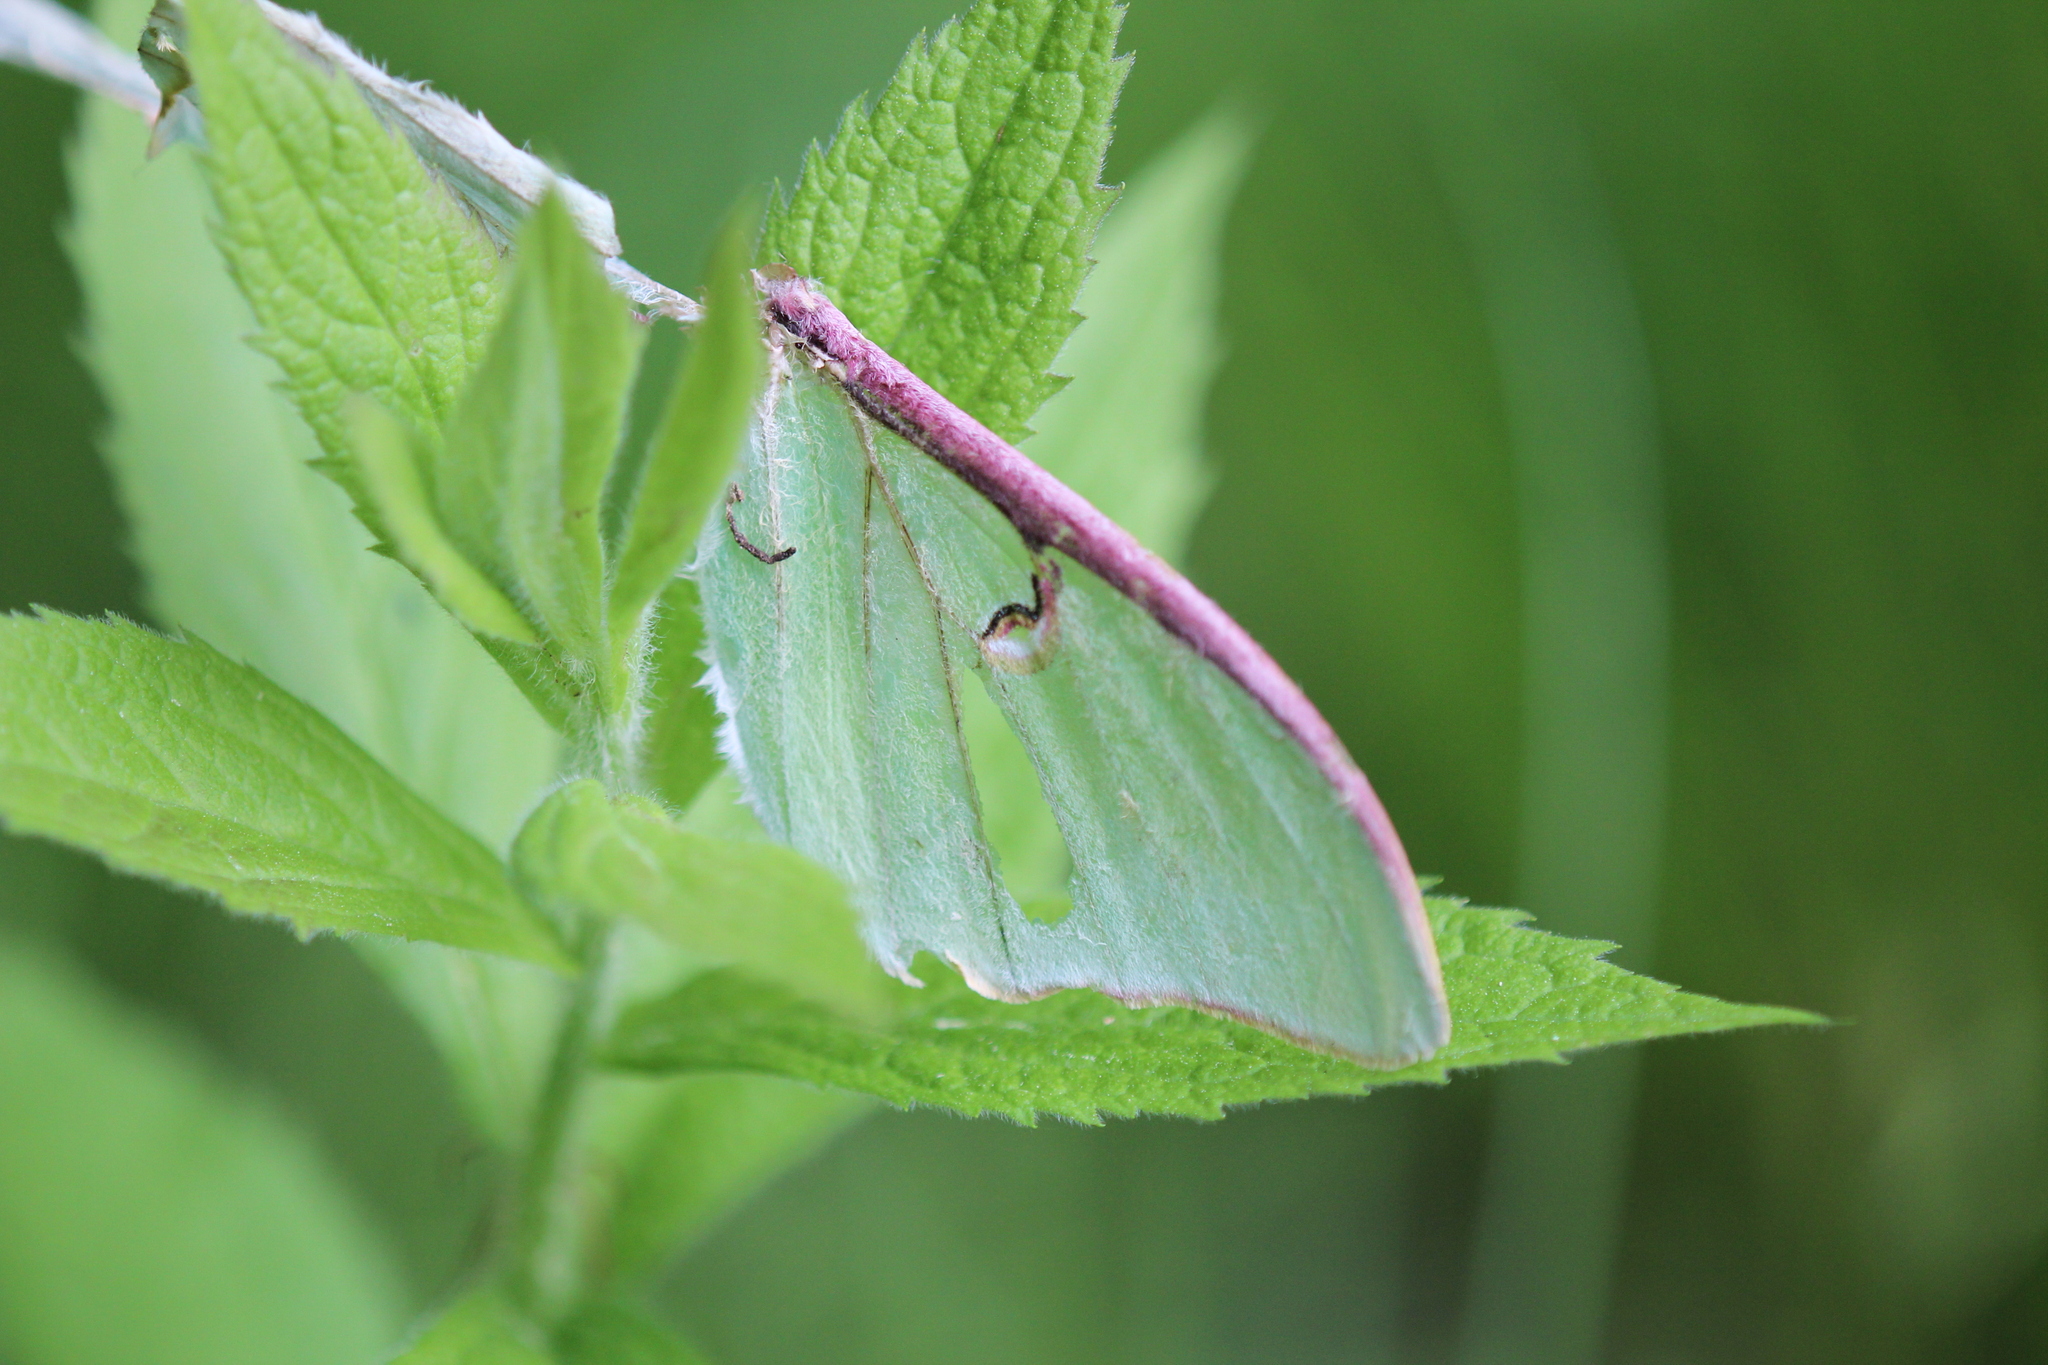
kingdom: Animalia
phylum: Arthropoda
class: Insecta
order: Lepidoptera
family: Saturniidae
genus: Actias
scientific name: Actias luna
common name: Luna moth
